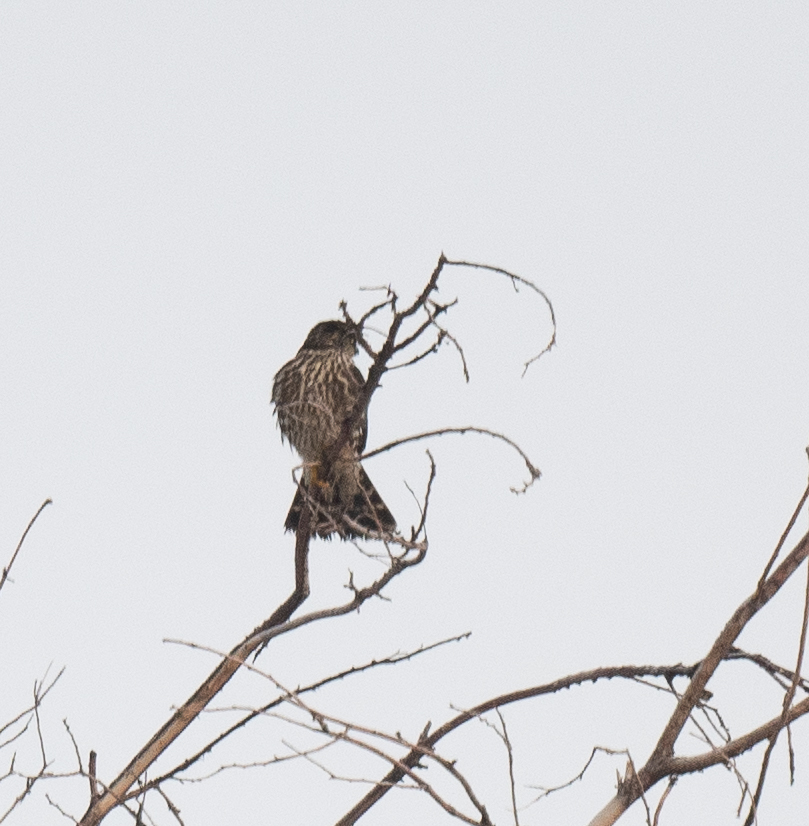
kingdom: Animalia
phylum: Chordata
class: Aves
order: Falconiformes
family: Falconidae
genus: Falco
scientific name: Falco columbarius
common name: Merlin
